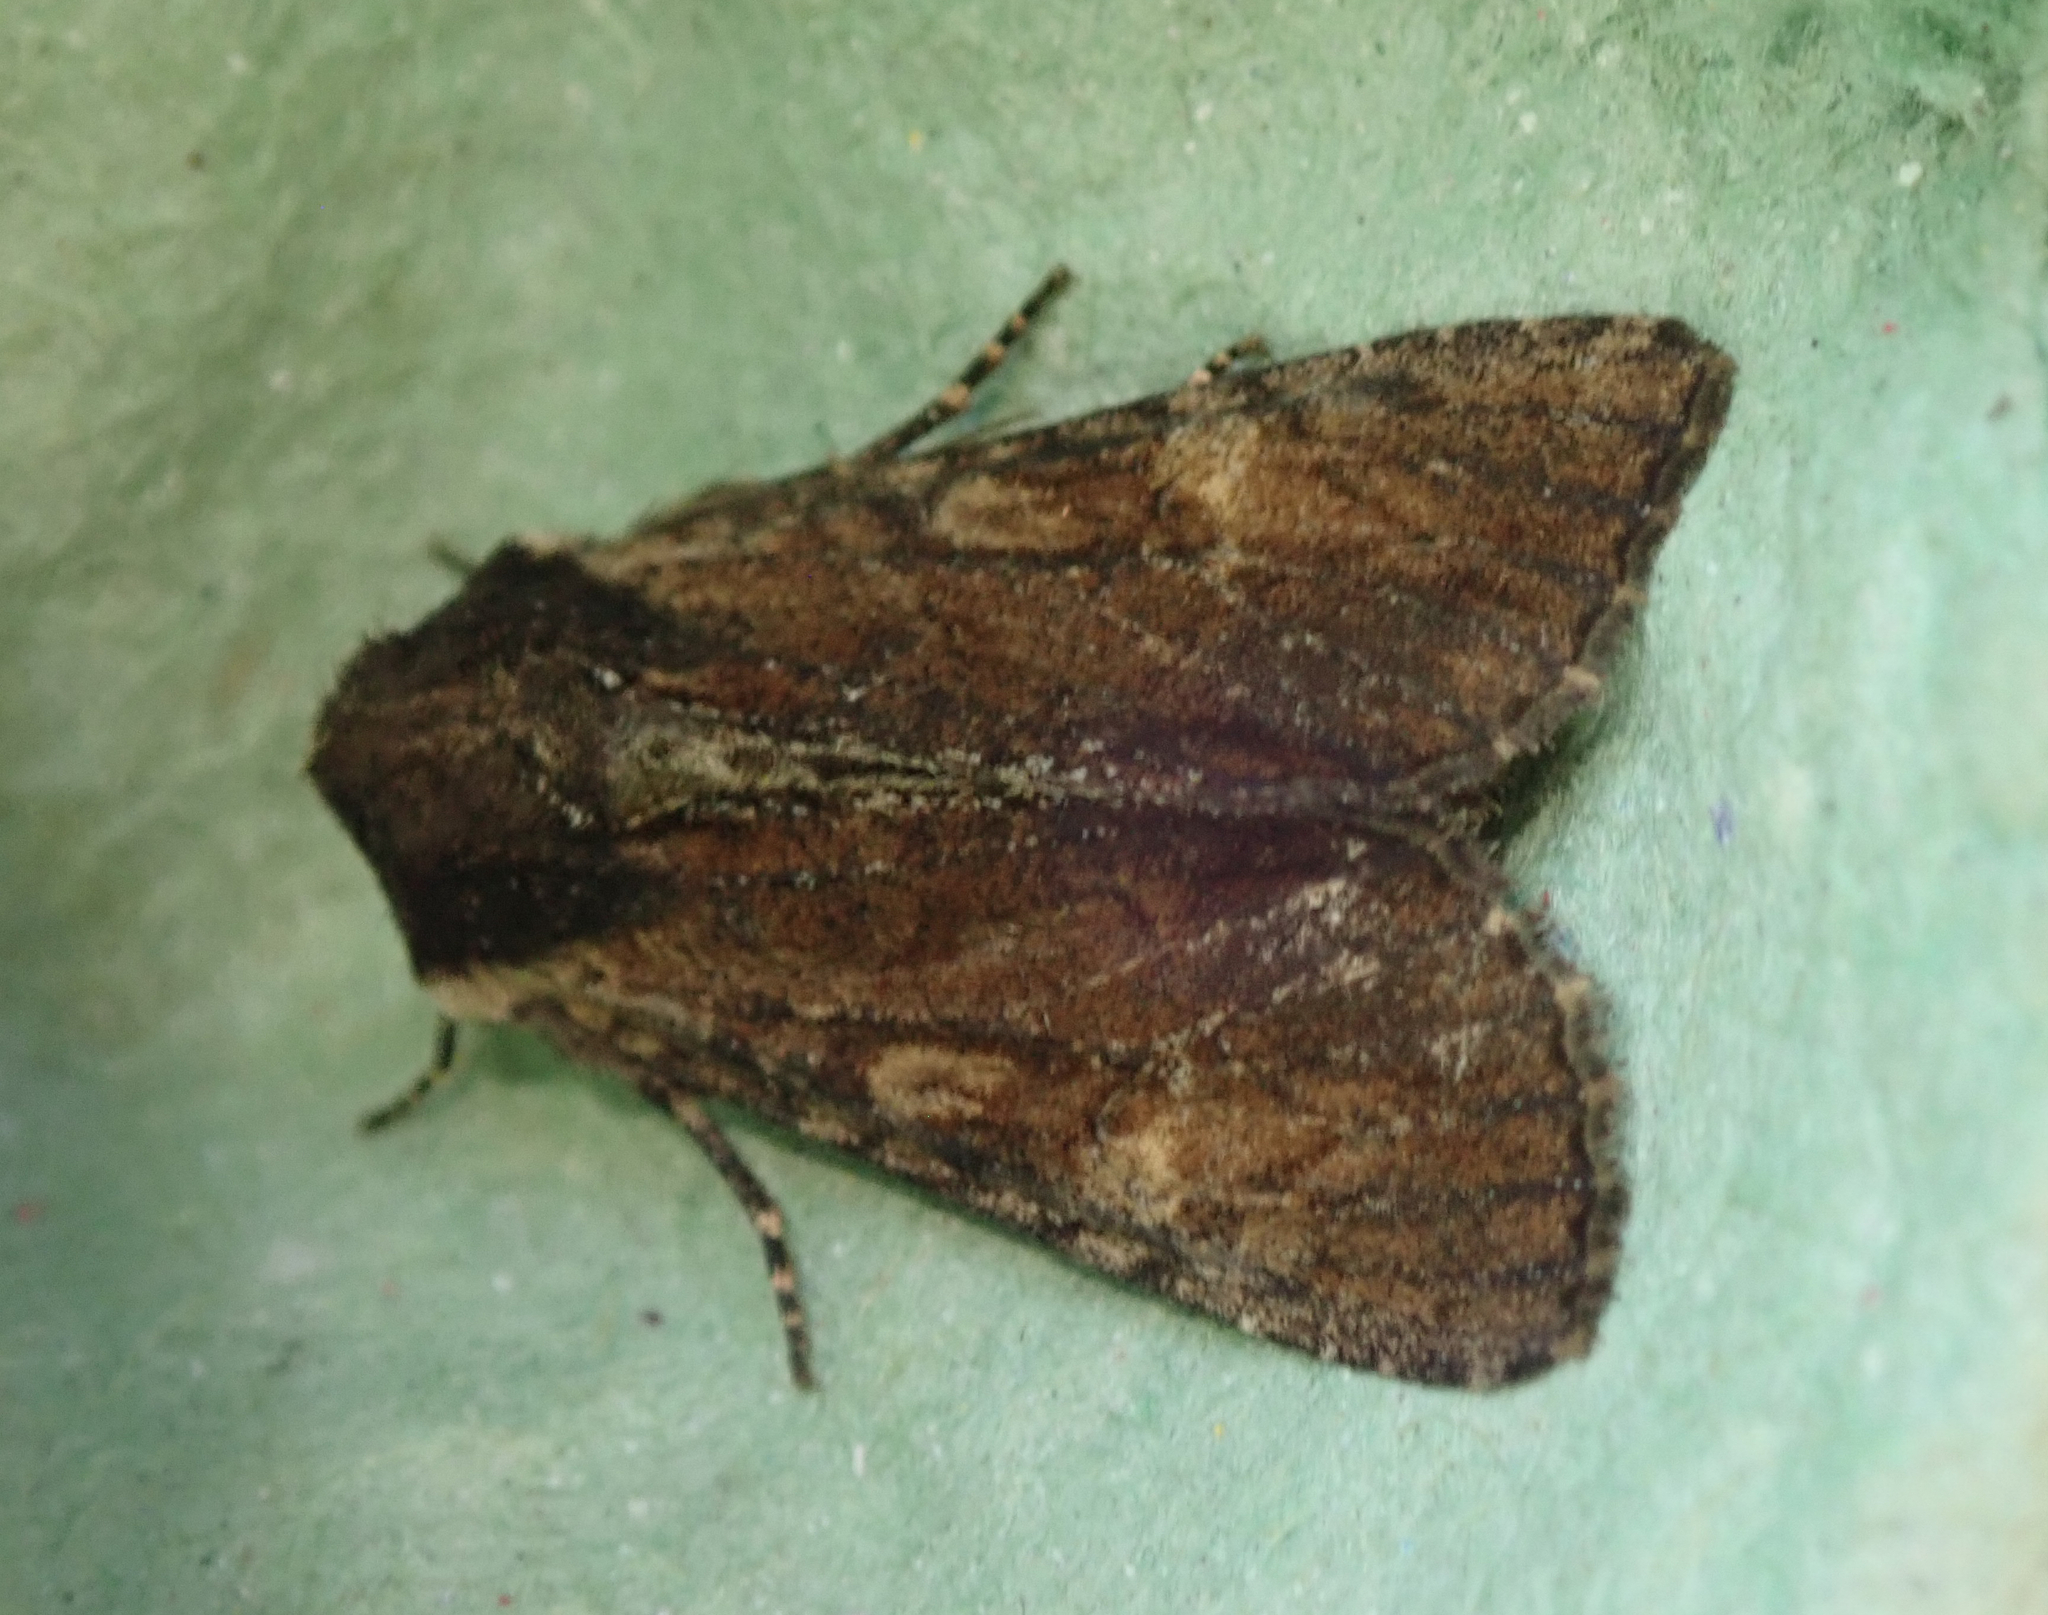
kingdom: Animalia
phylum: Arthropoda
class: Insecta
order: Lepidoptera
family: Noctuidae
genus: Apamea
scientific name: Apamea crenata
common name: Clouded-bordered brindle
